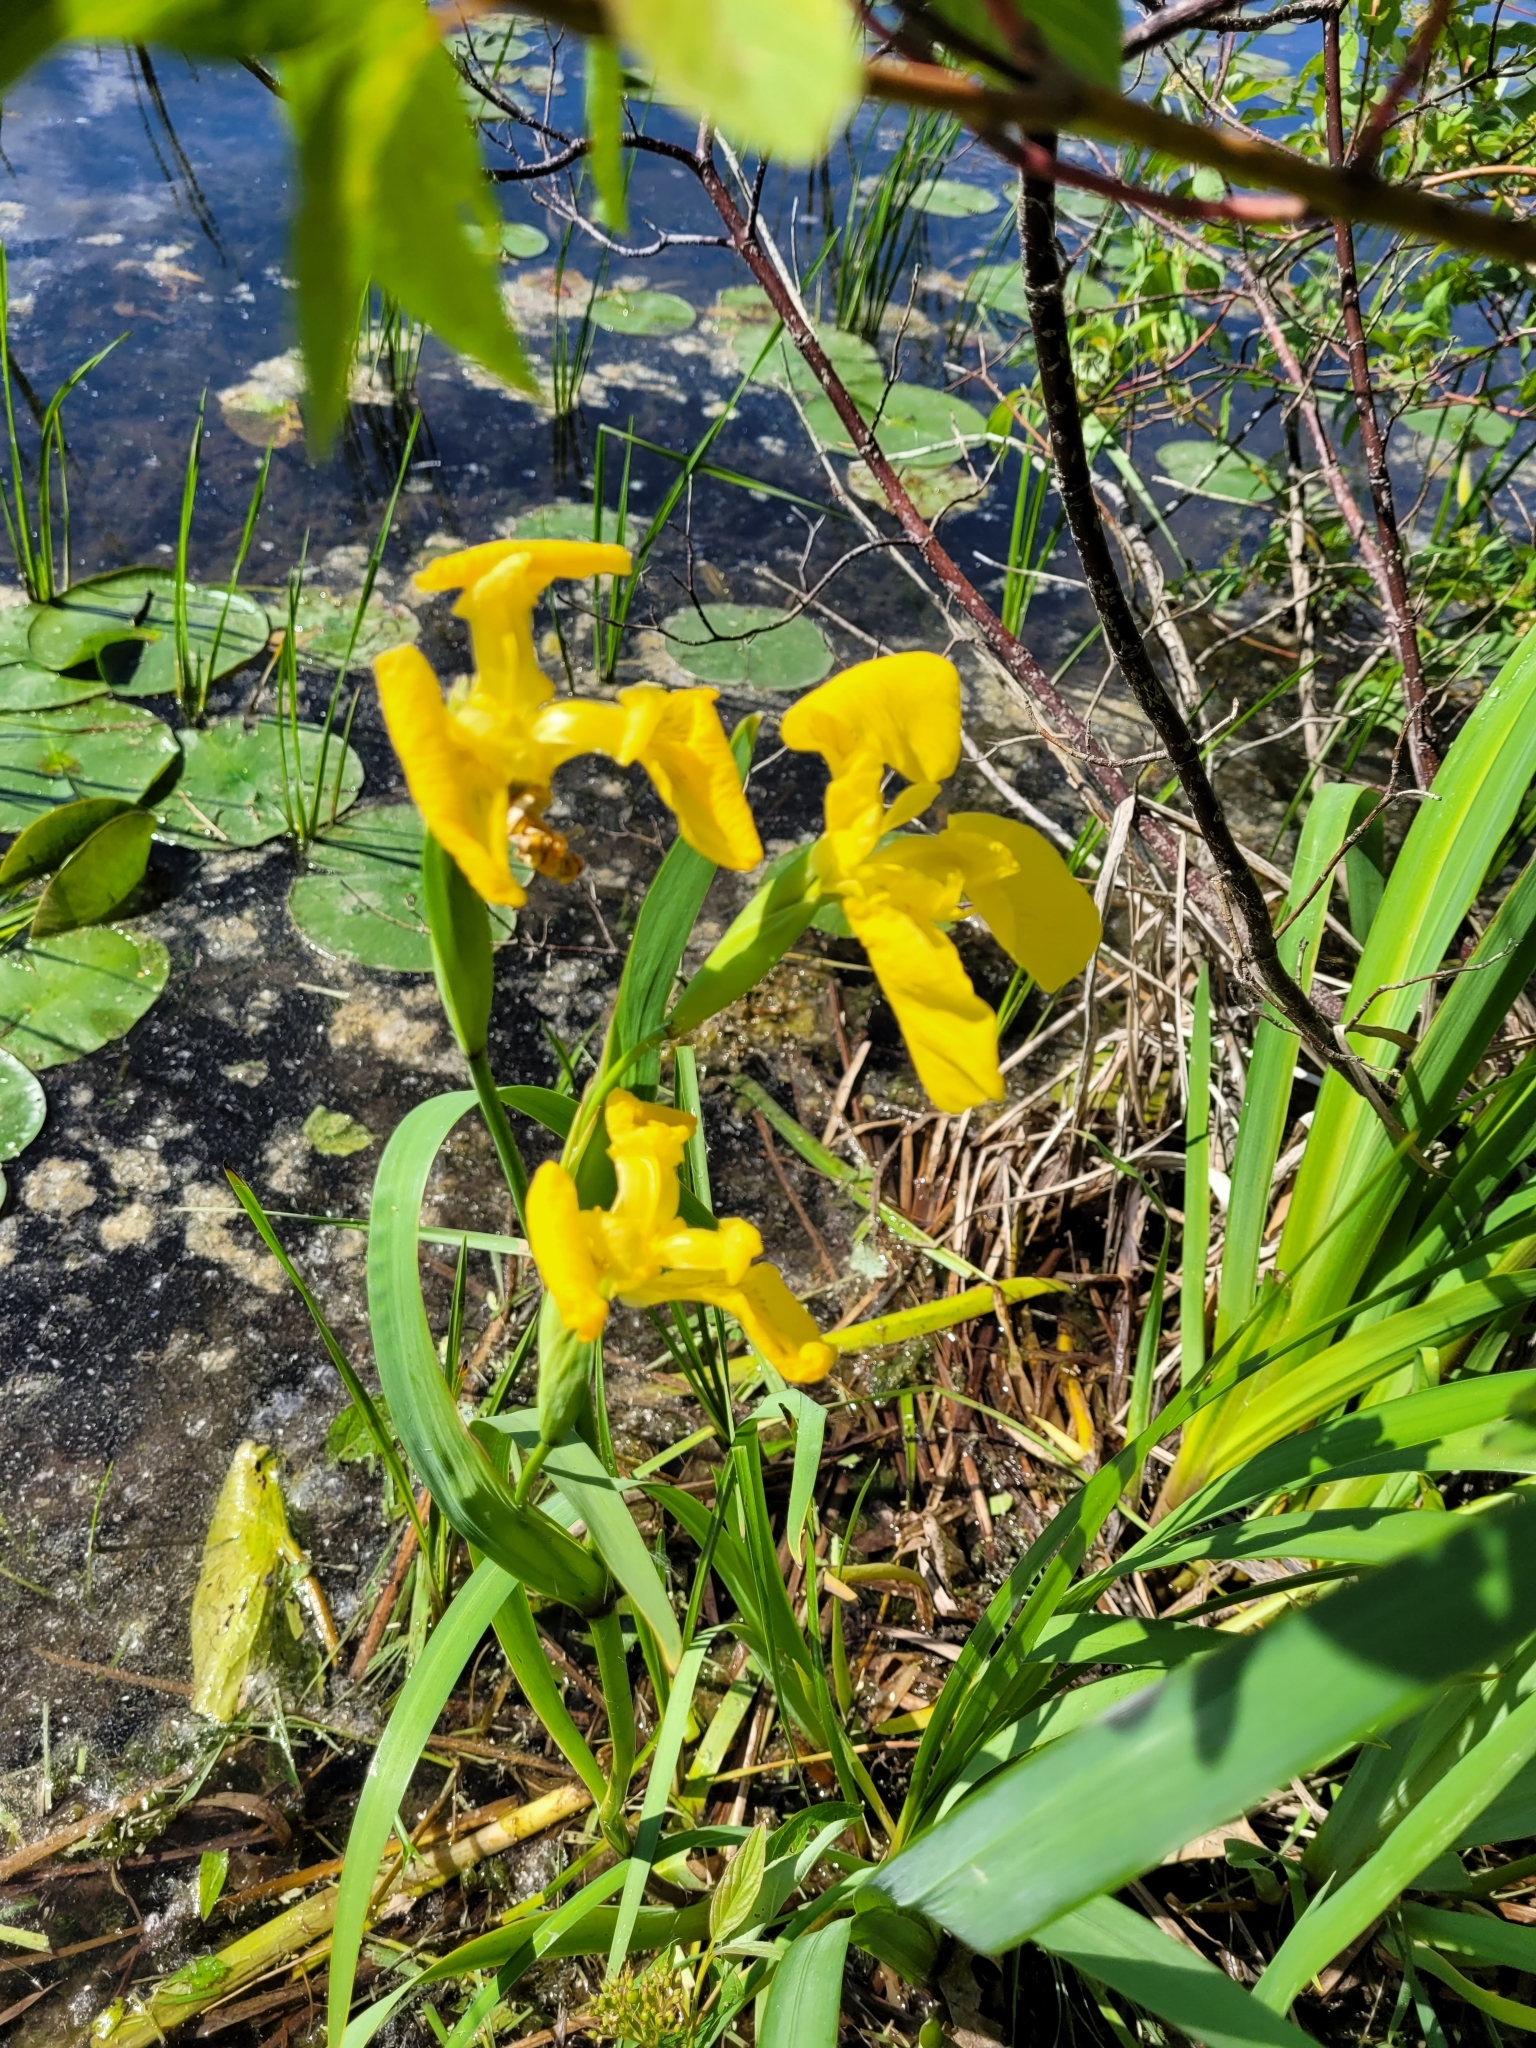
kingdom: Plantae
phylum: Tracheophyta
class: Liliopsida
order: Asparagales
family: Iridaceae
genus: Iris
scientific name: Iris pseudacorus
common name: Yellow flag
